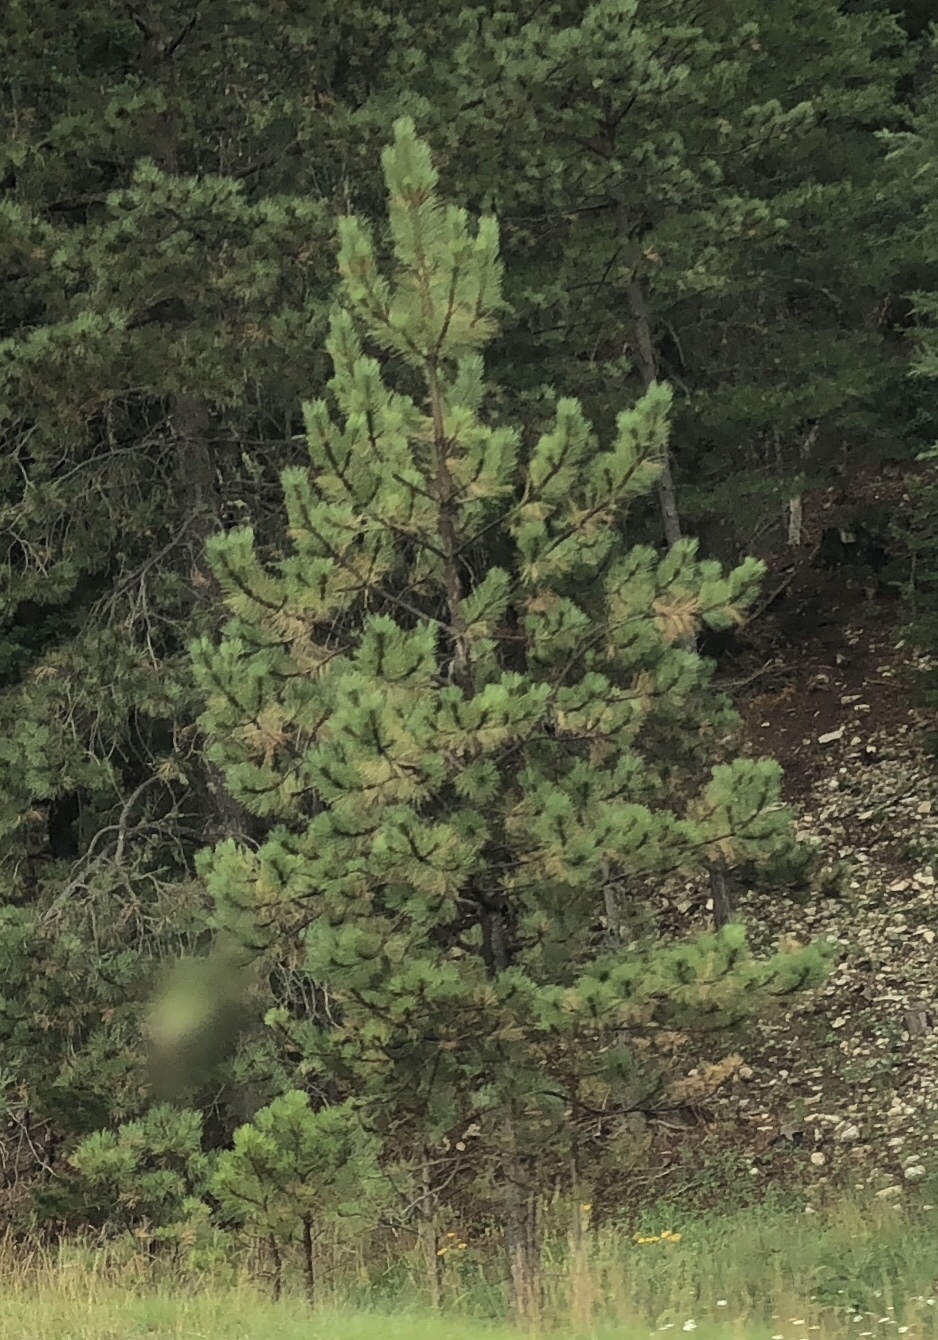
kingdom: Plantae
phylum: Tracheophyta
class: Pinopsida
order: Pinales
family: Pinaceae
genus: Pinus
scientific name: Pinus ponderosa
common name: Western yellow-pine
